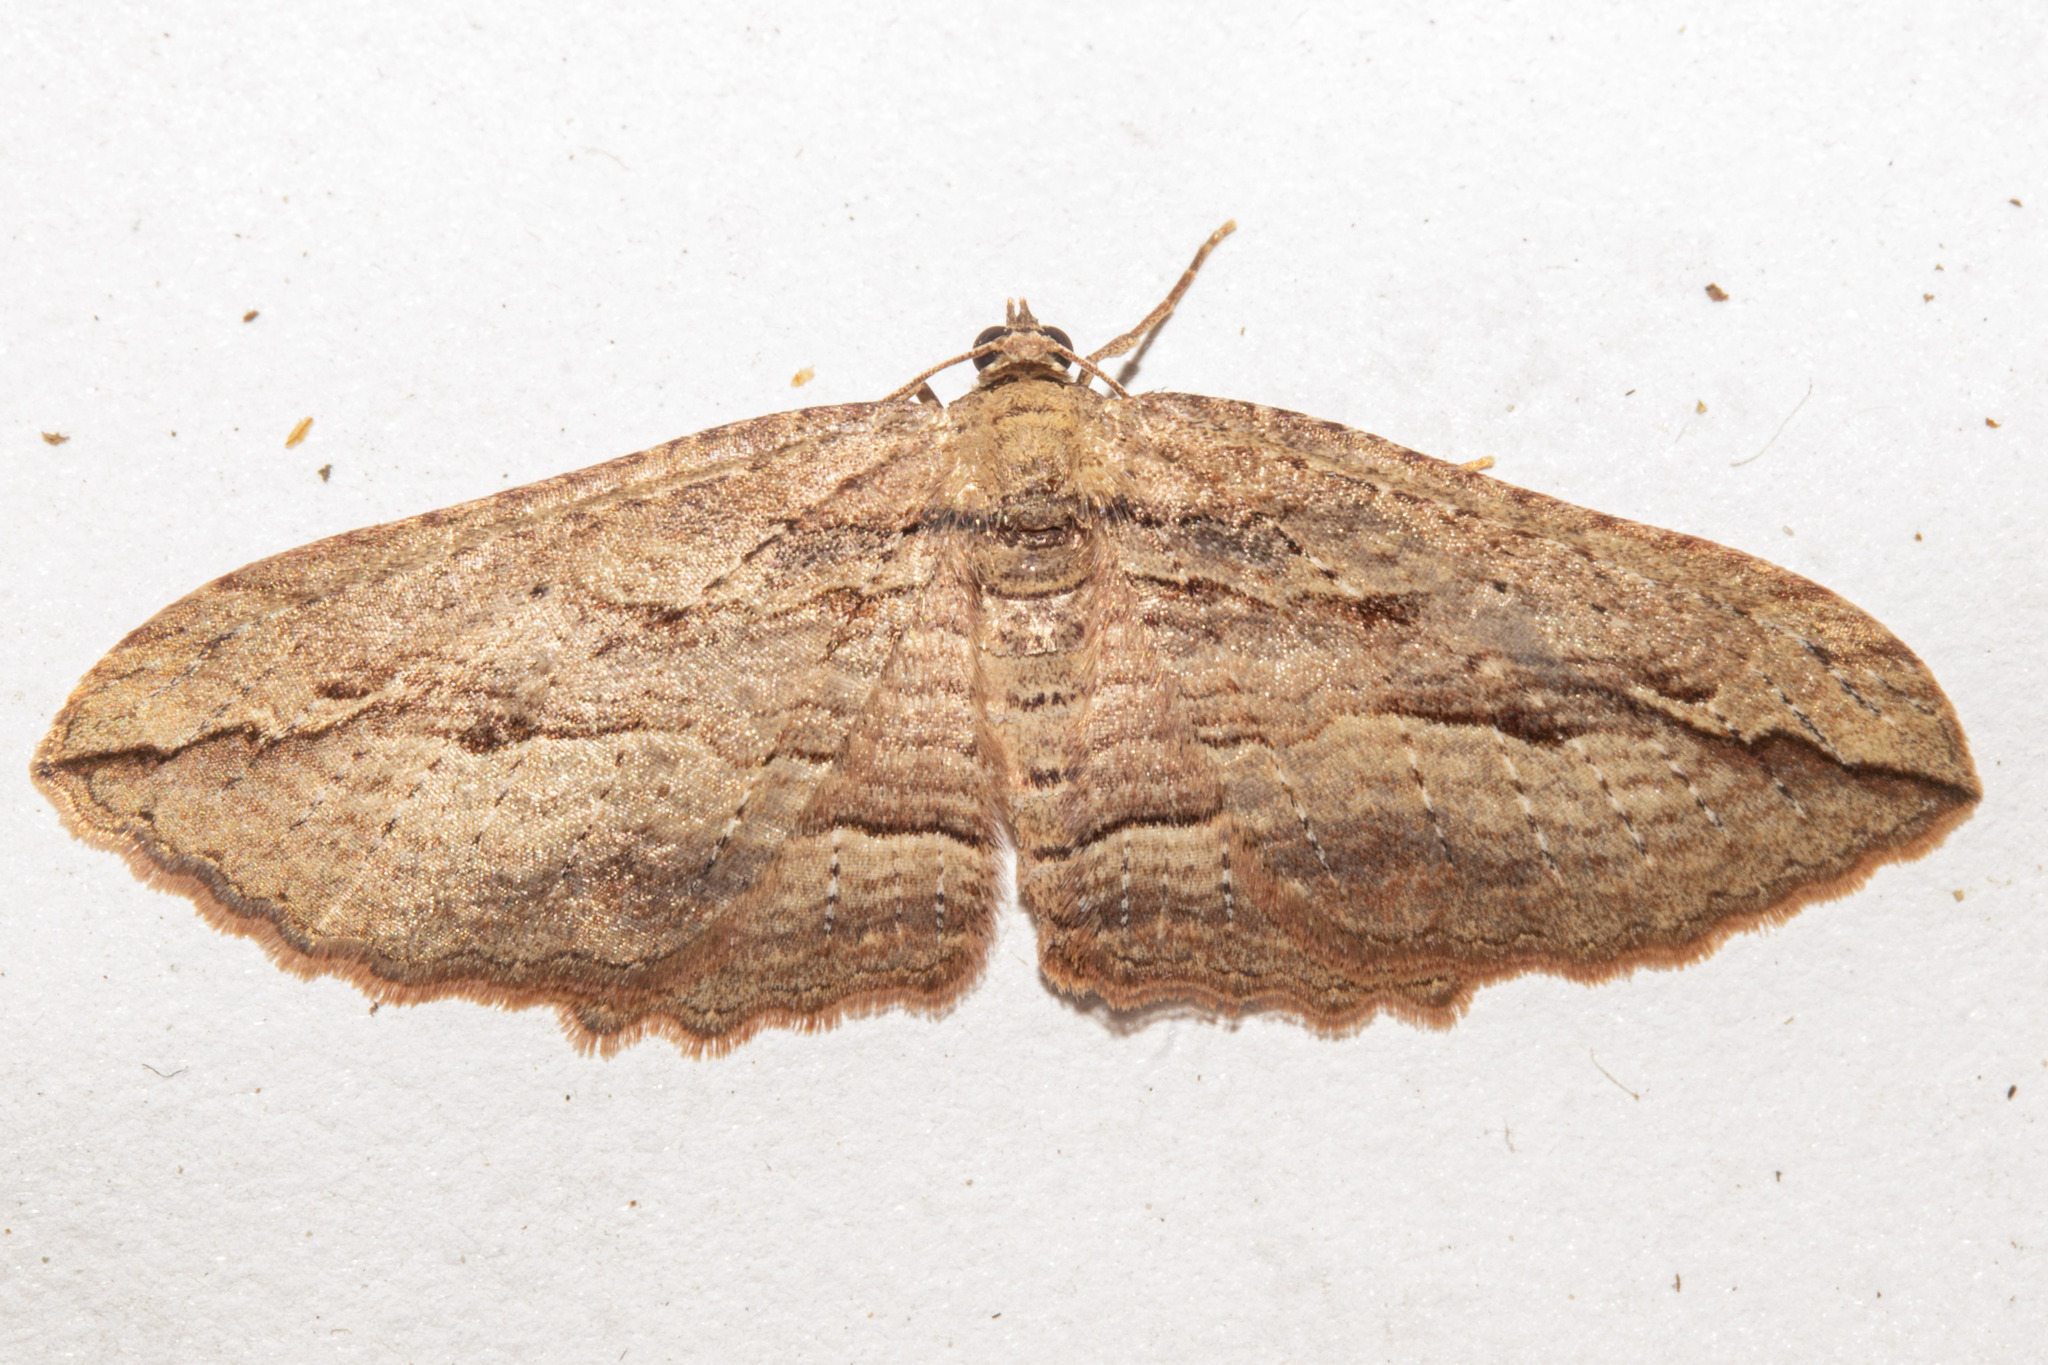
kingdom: Animalia
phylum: Arthropoda
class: Insecta
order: Lepidoptera
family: Geometridae
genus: Austrocidaria
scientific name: Austrocidaria gobiata
